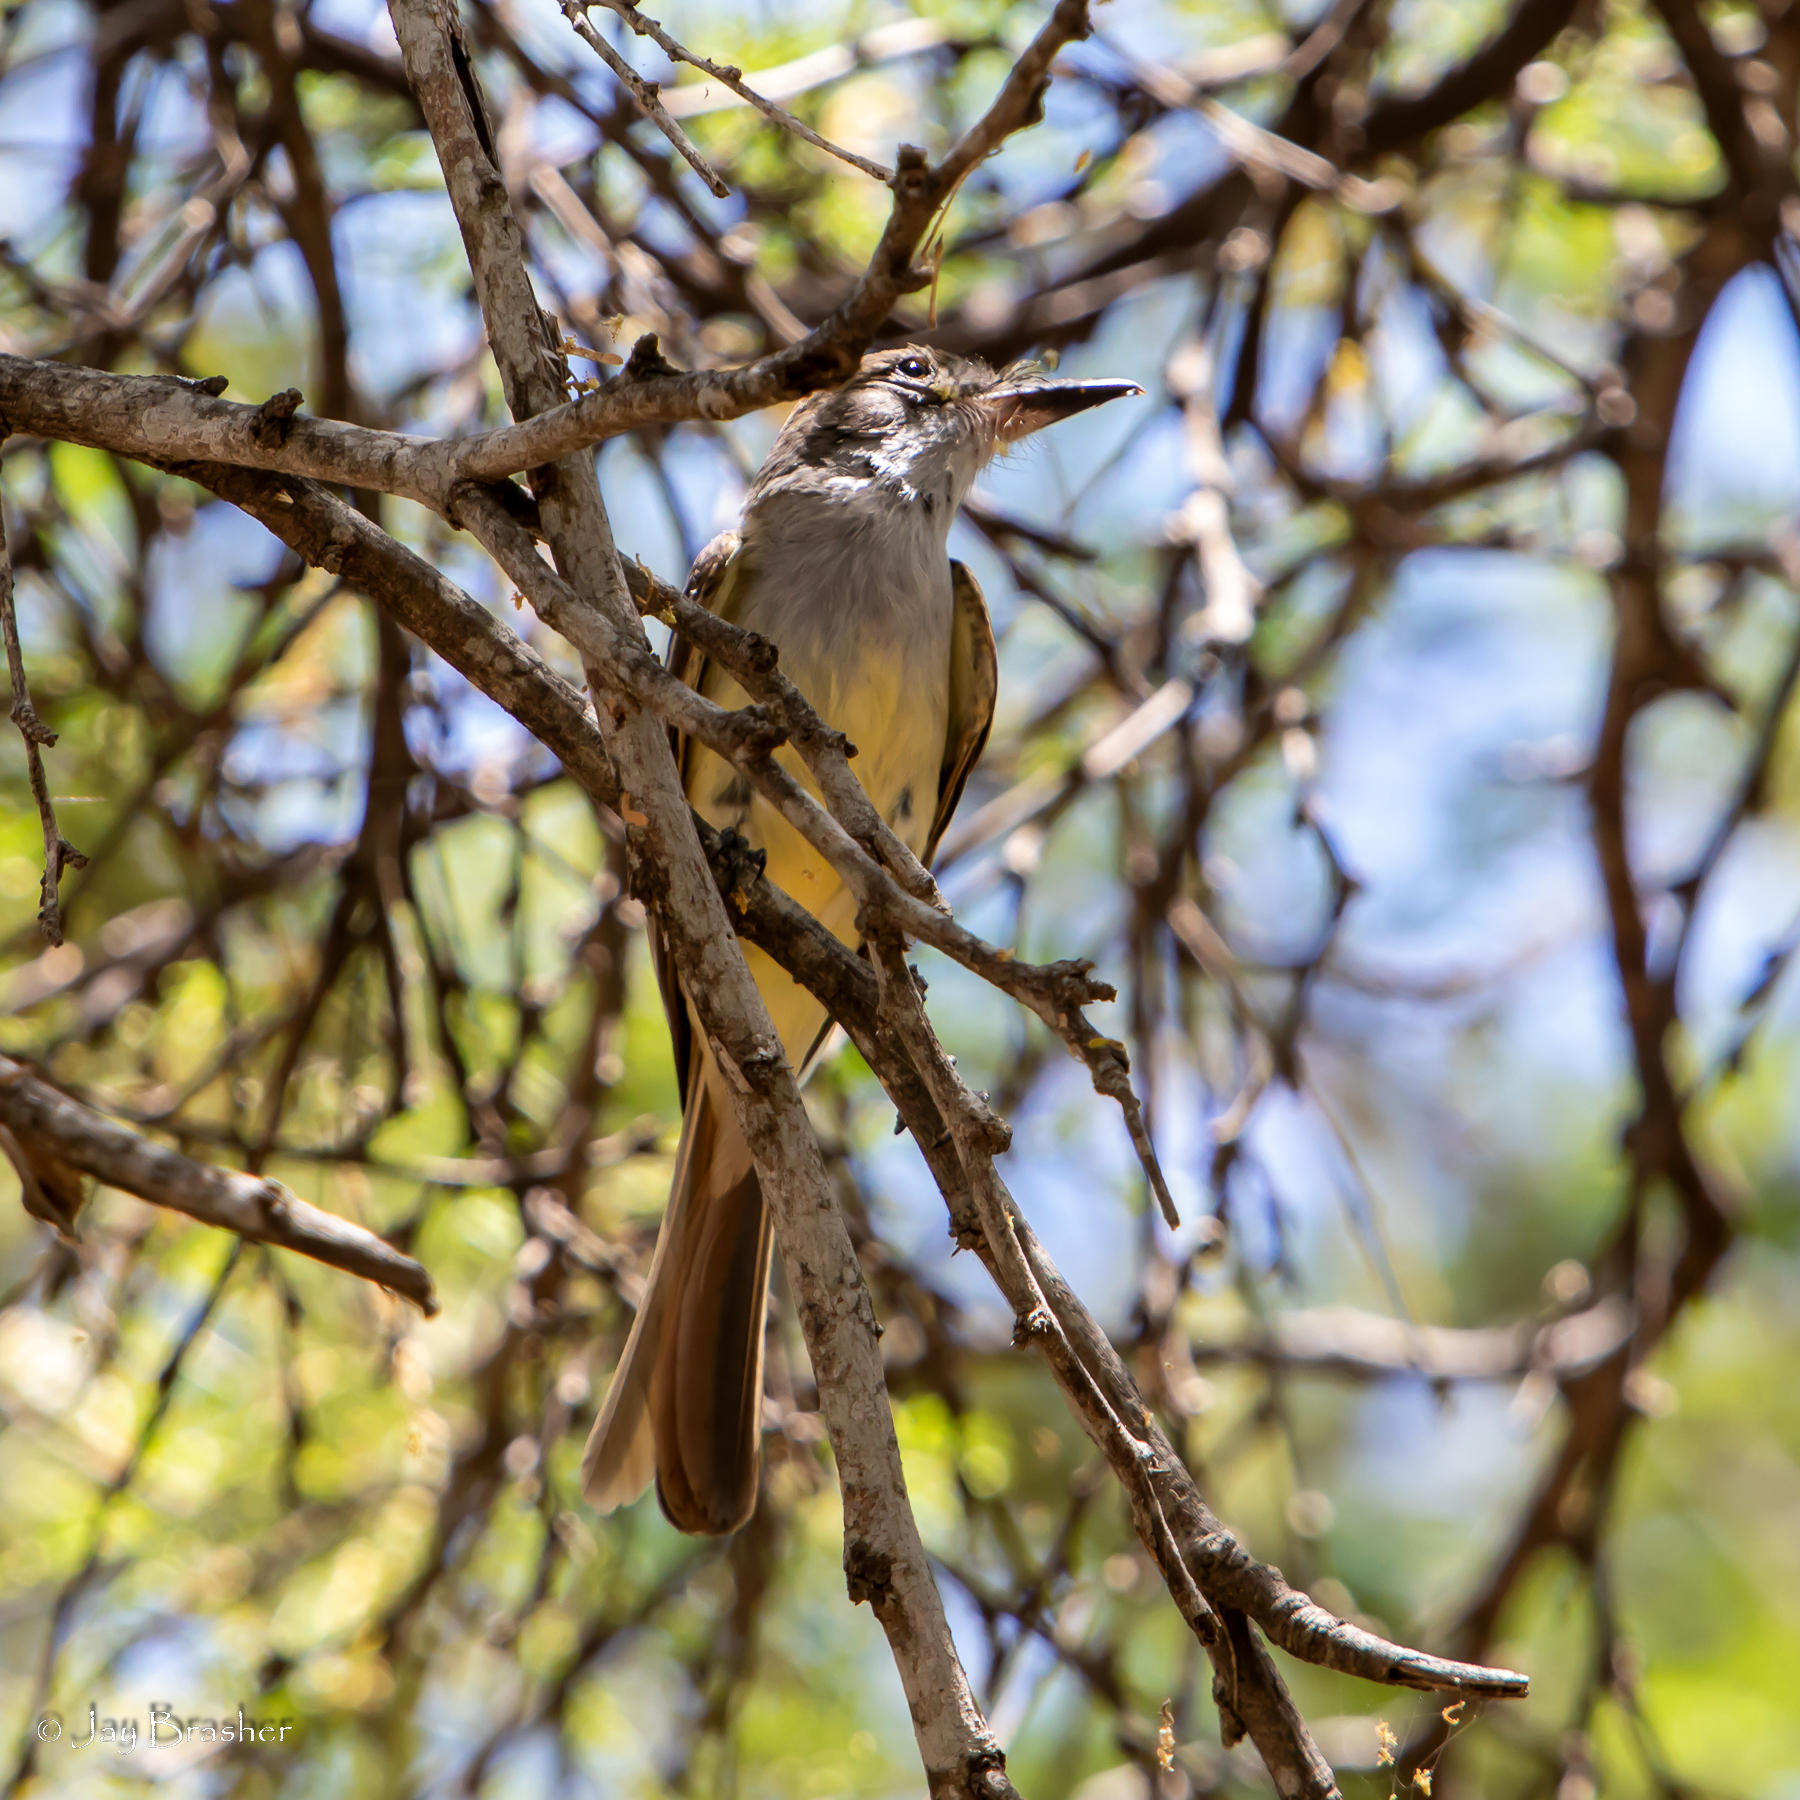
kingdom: Animalia
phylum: Chordata
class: Aves
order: Passeriformes
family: Tyrannidae
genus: Myiarchus
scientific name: Myiarchus tyrannulus
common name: Brown-crested flycatcher
